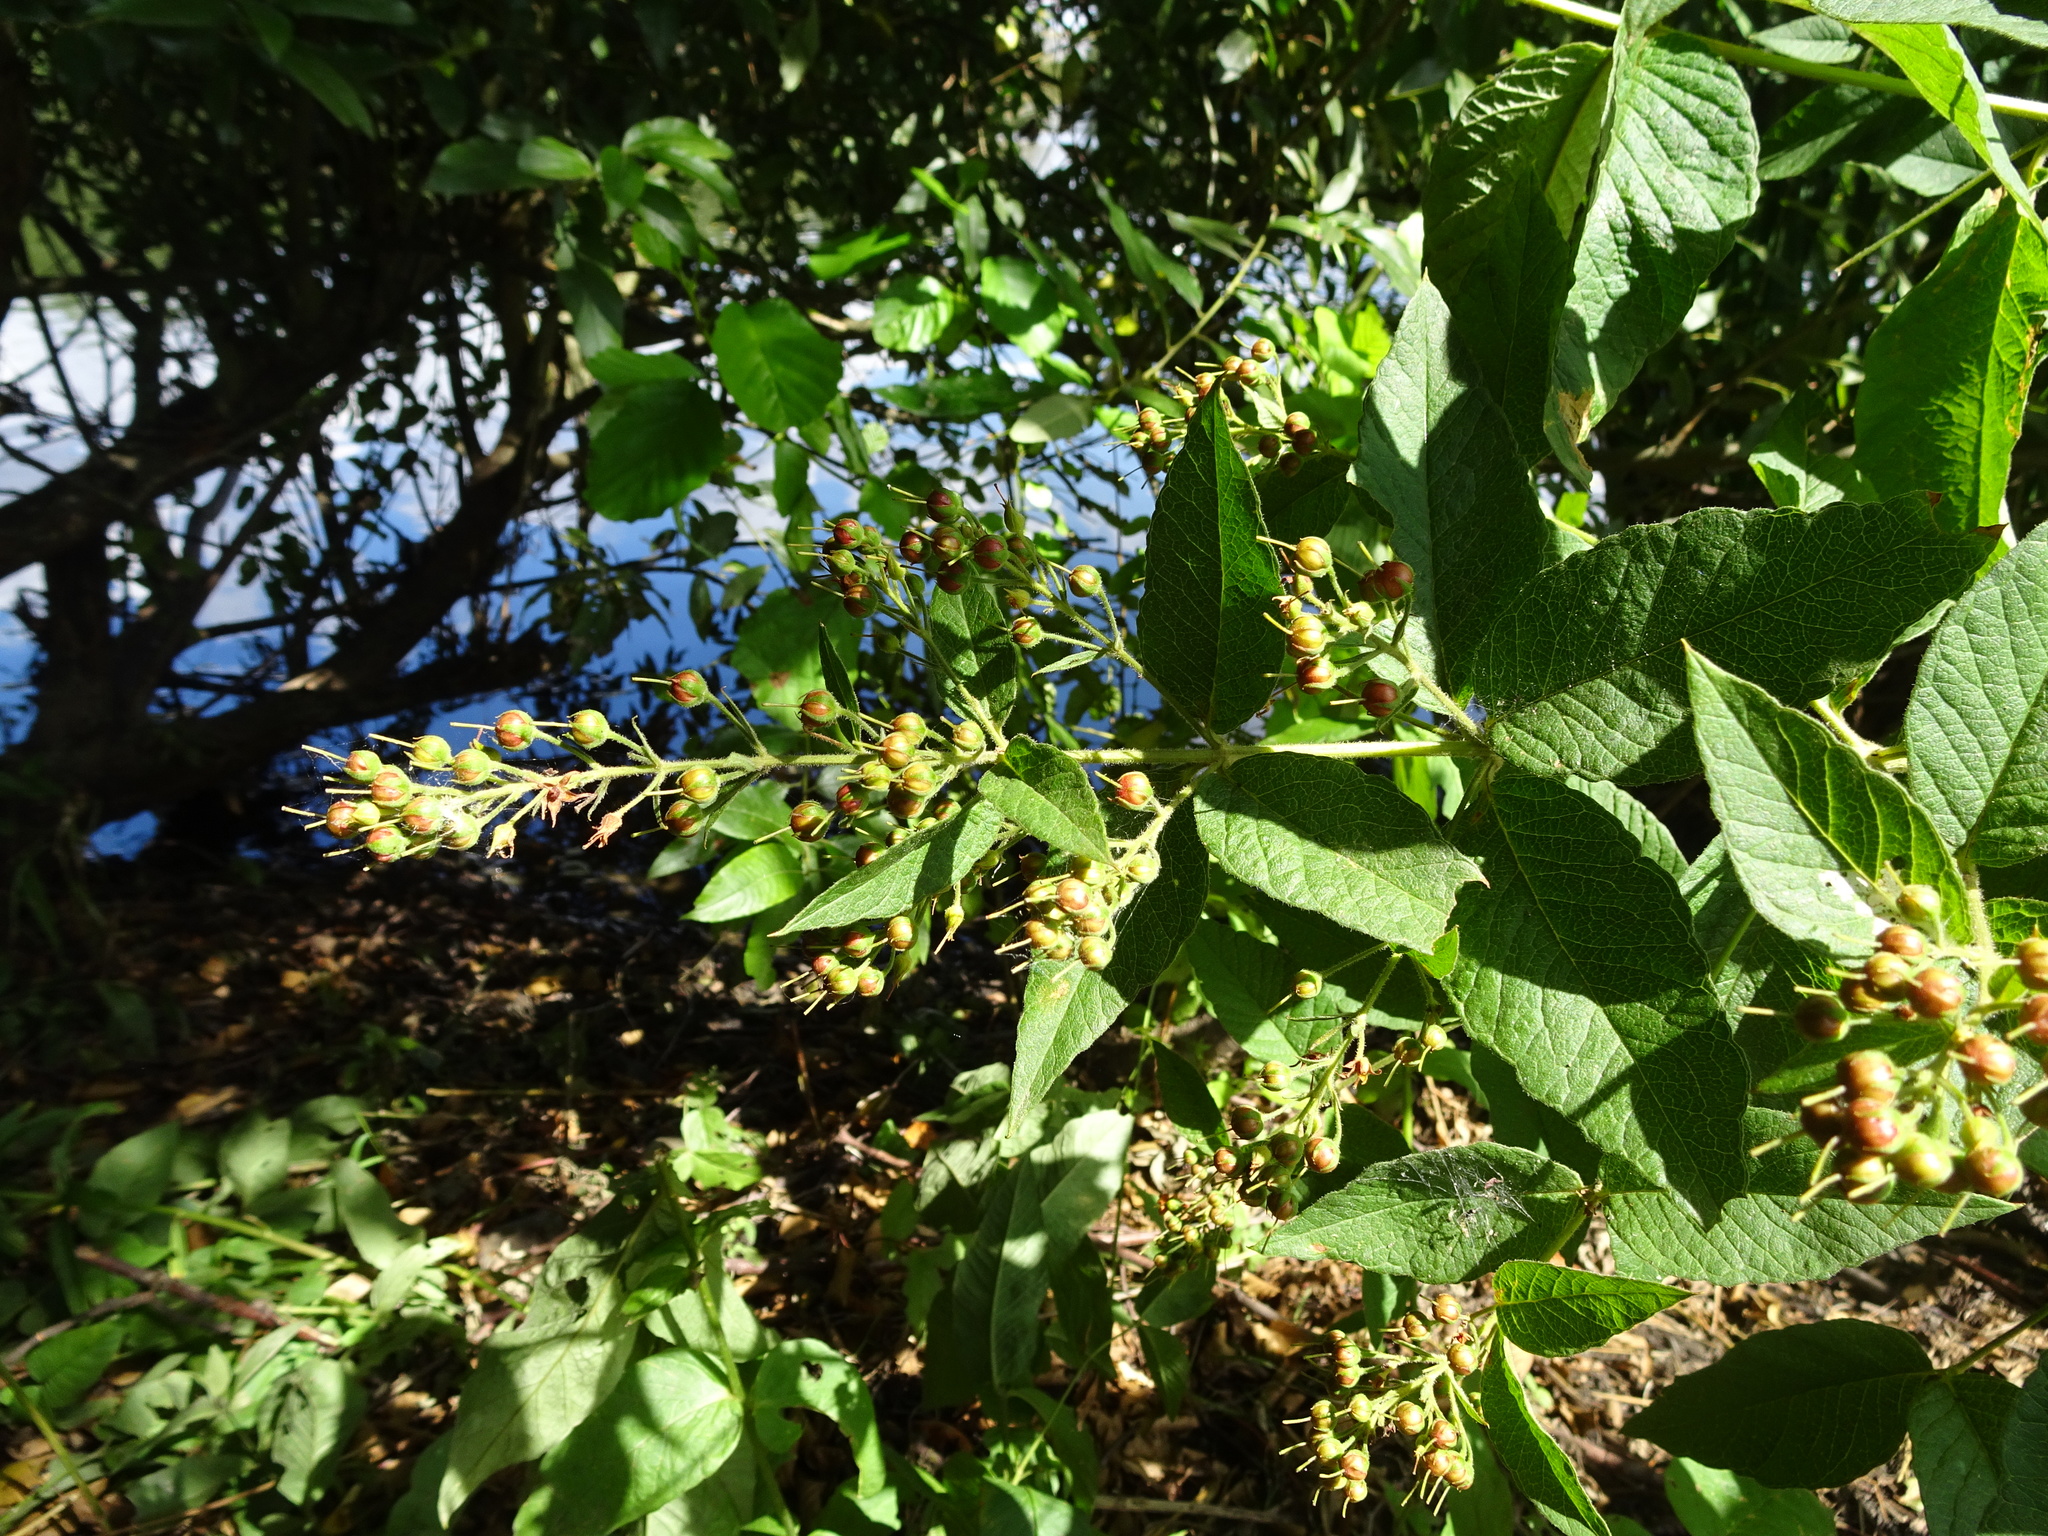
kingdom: Plantae
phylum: Tracheophyta
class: Magnoliopsida
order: Lamiales
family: Scrophulariaceae
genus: Scrophularia
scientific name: Scrophularia nodosa
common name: Common figwort
